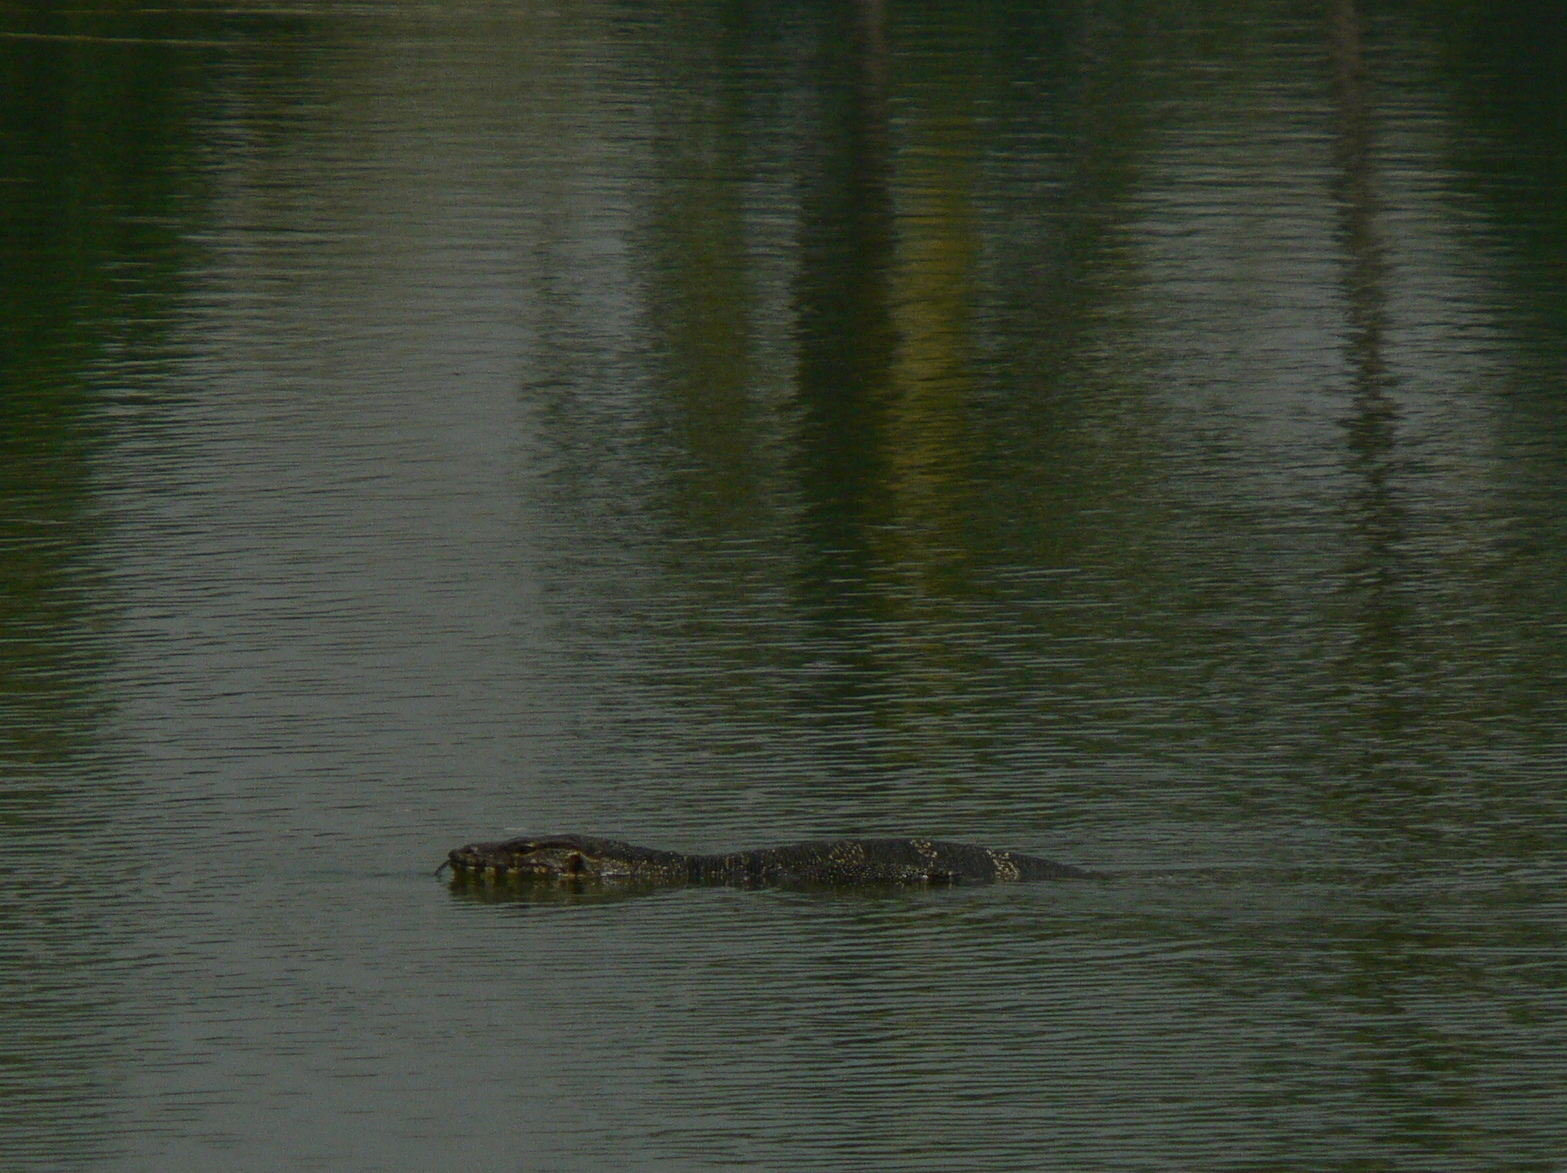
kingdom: Animalia
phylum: Chordata
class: Squamata
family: Varanidae
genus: Varanus
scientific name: Varanus salvator
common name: Common water monitor
